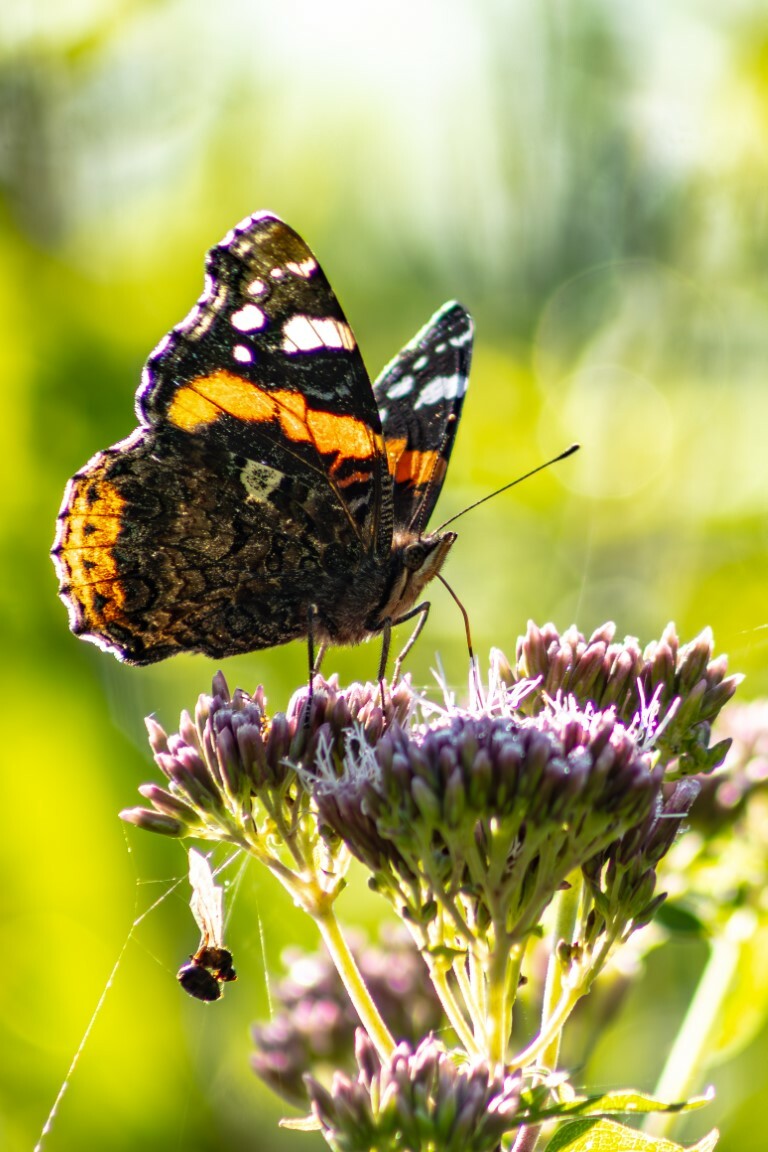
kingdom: Animalia
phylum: Arthropoda
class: Insecta
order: Lepidoptera
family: Nymphalidae
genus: Vanessa
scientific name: Vanessa atalanta
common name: Red admiral
